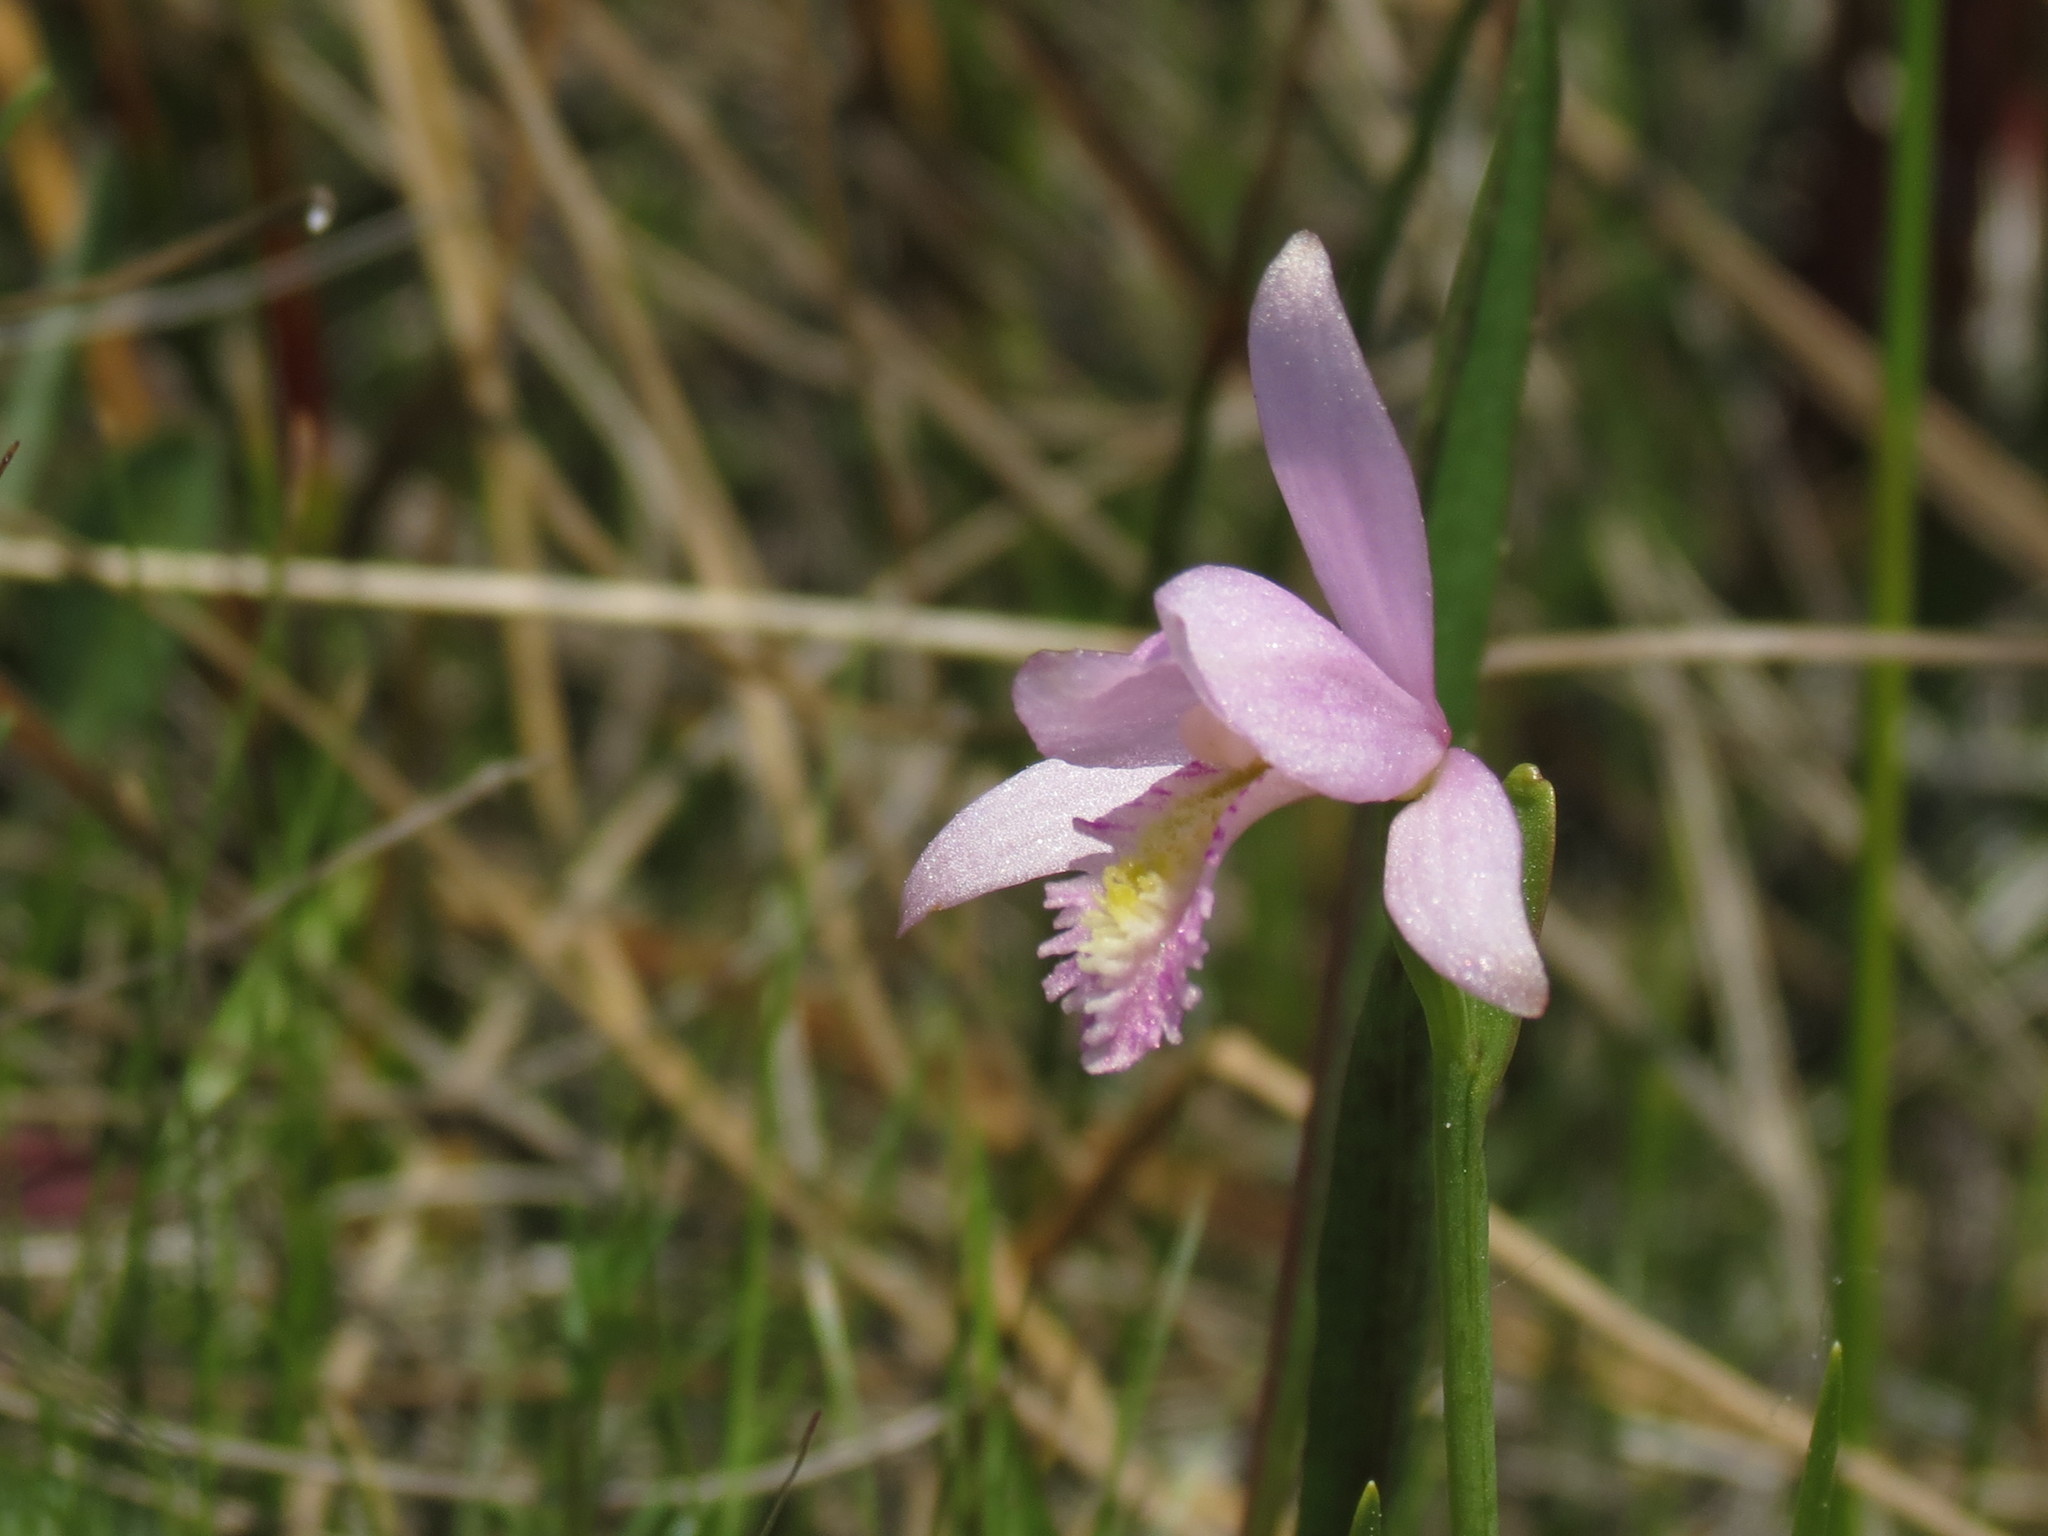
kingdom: Plantae
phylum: Tracheophyta
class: Liliopsida
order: Asparagales
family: Orchidaceae
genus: Pogonia
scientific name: Pogonia ophioglossoides
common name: Rose pogonia
